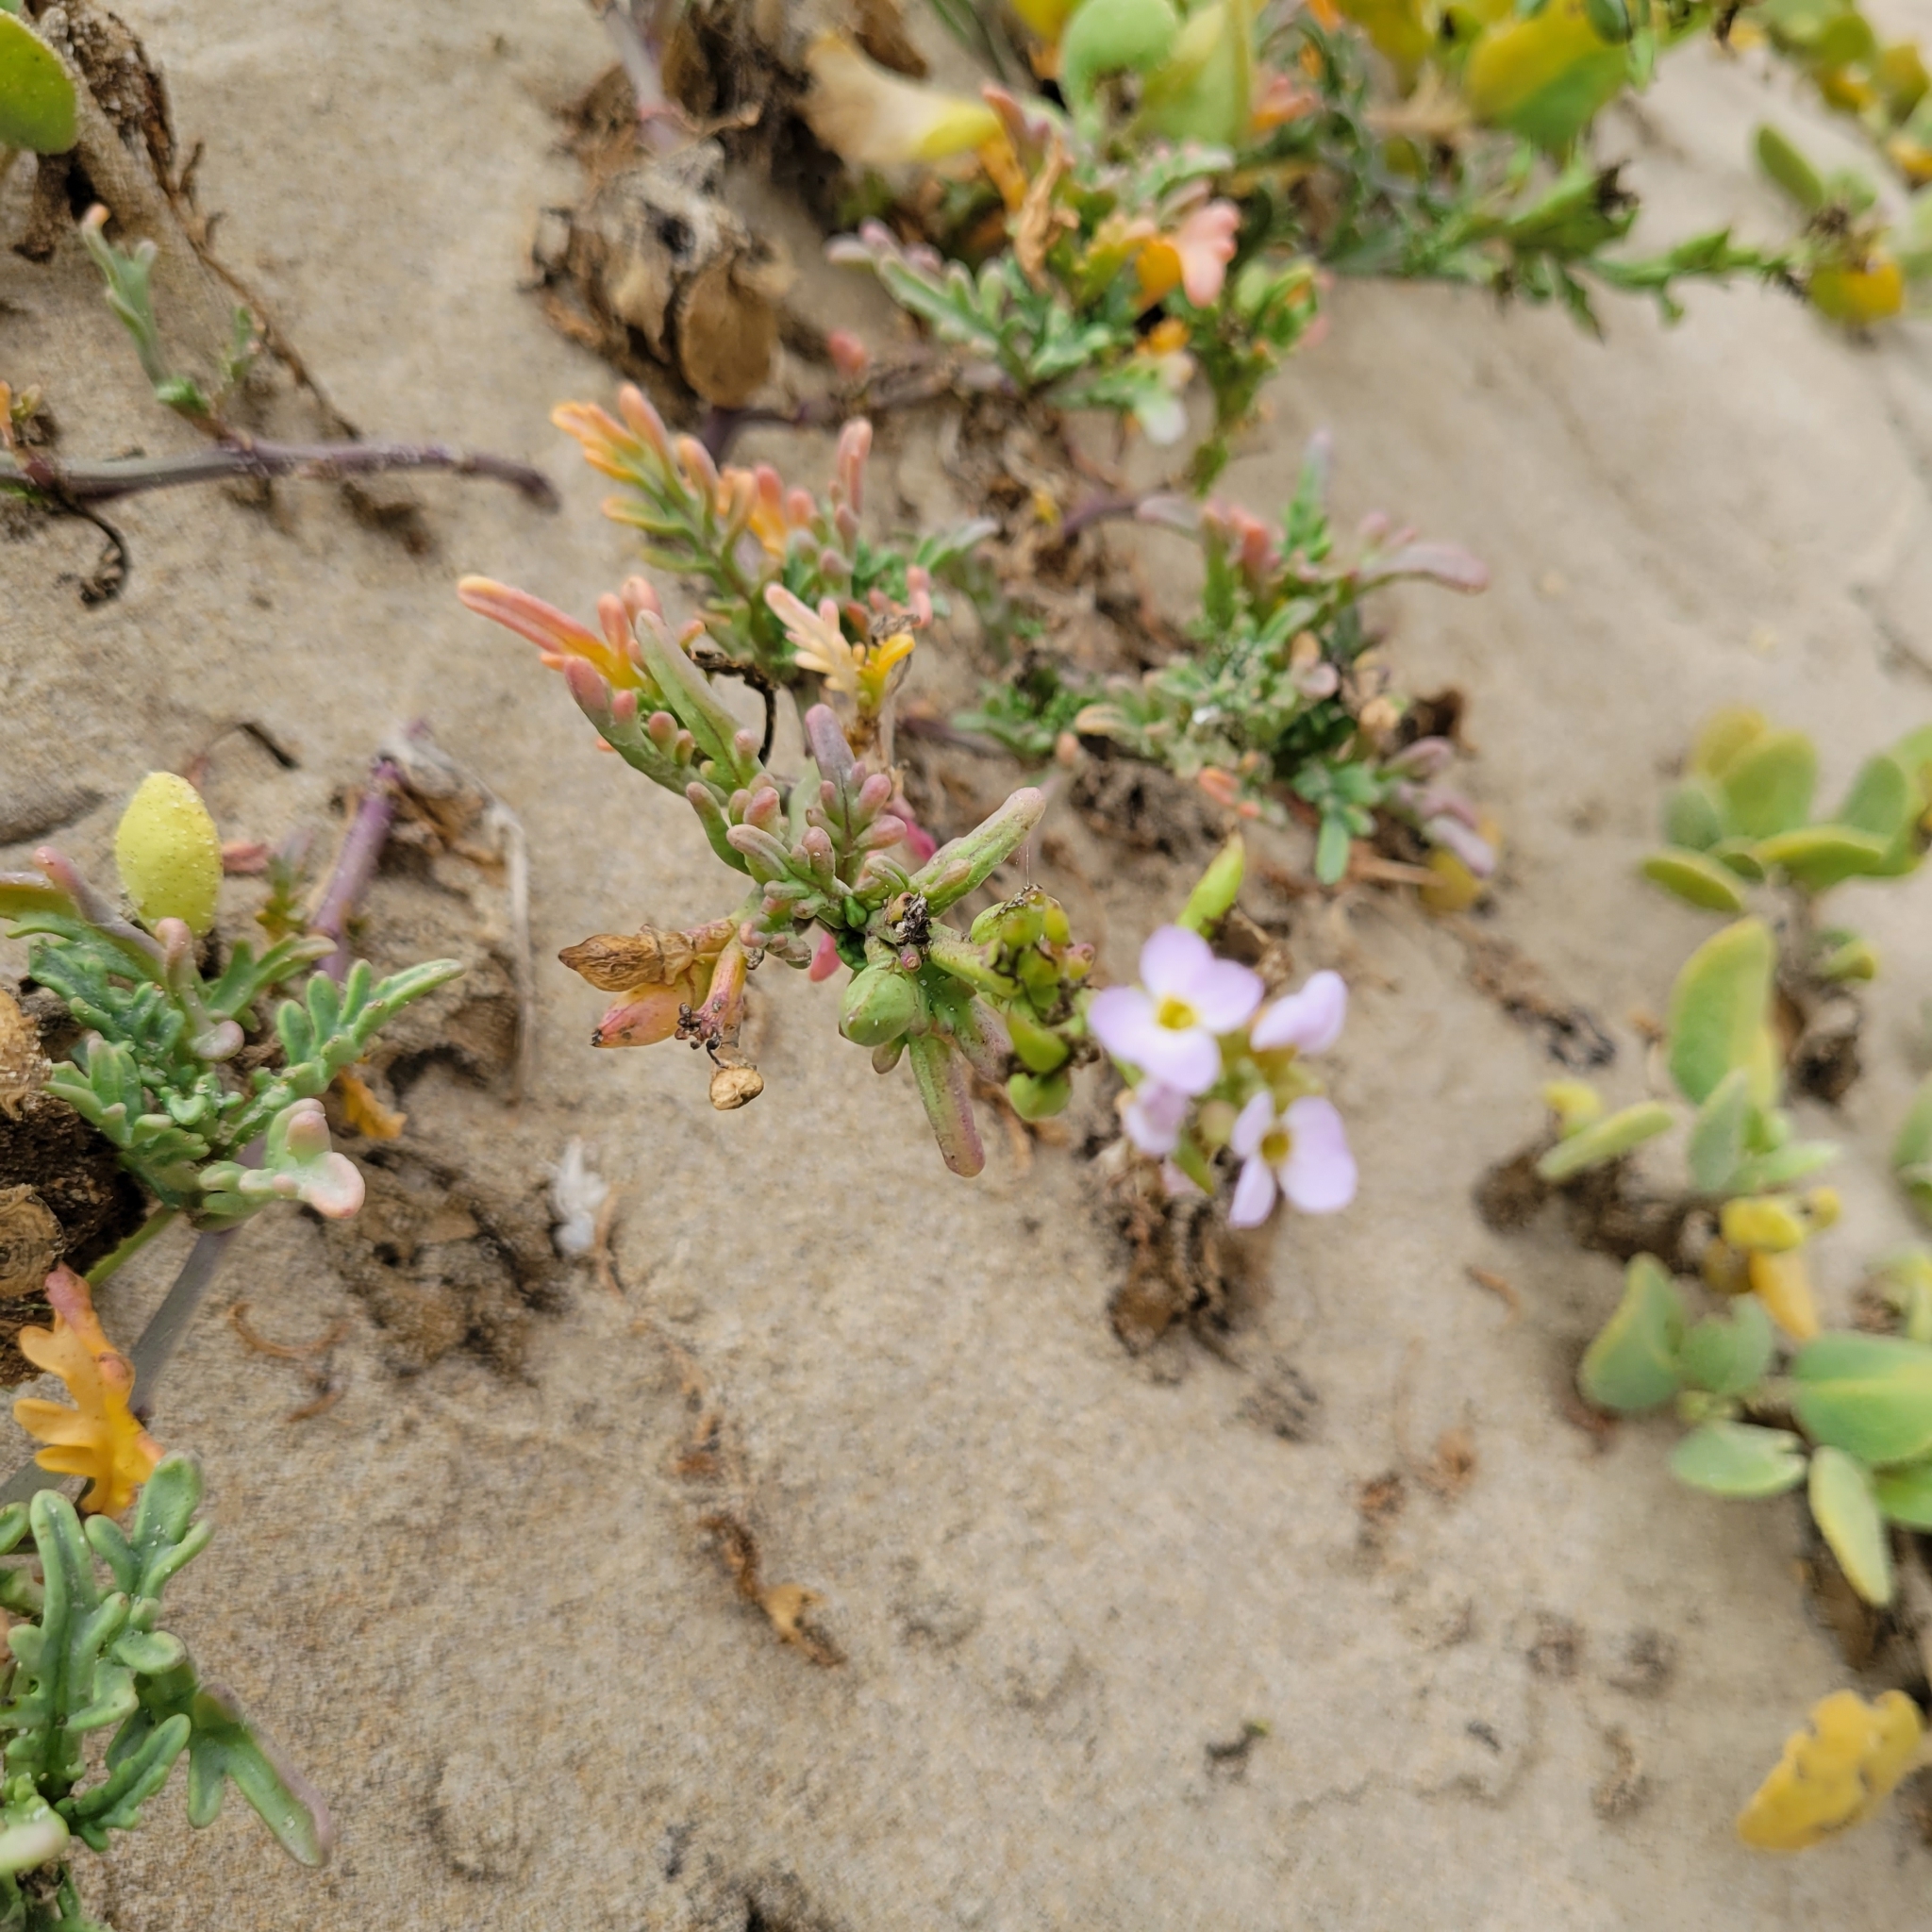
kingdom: Plantae
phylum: Tracheophyta
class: Magnoliopsida
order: Brassicales
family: Brassicaceae
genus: Cakile
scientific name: Cakile maritima
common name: Sea rocket
